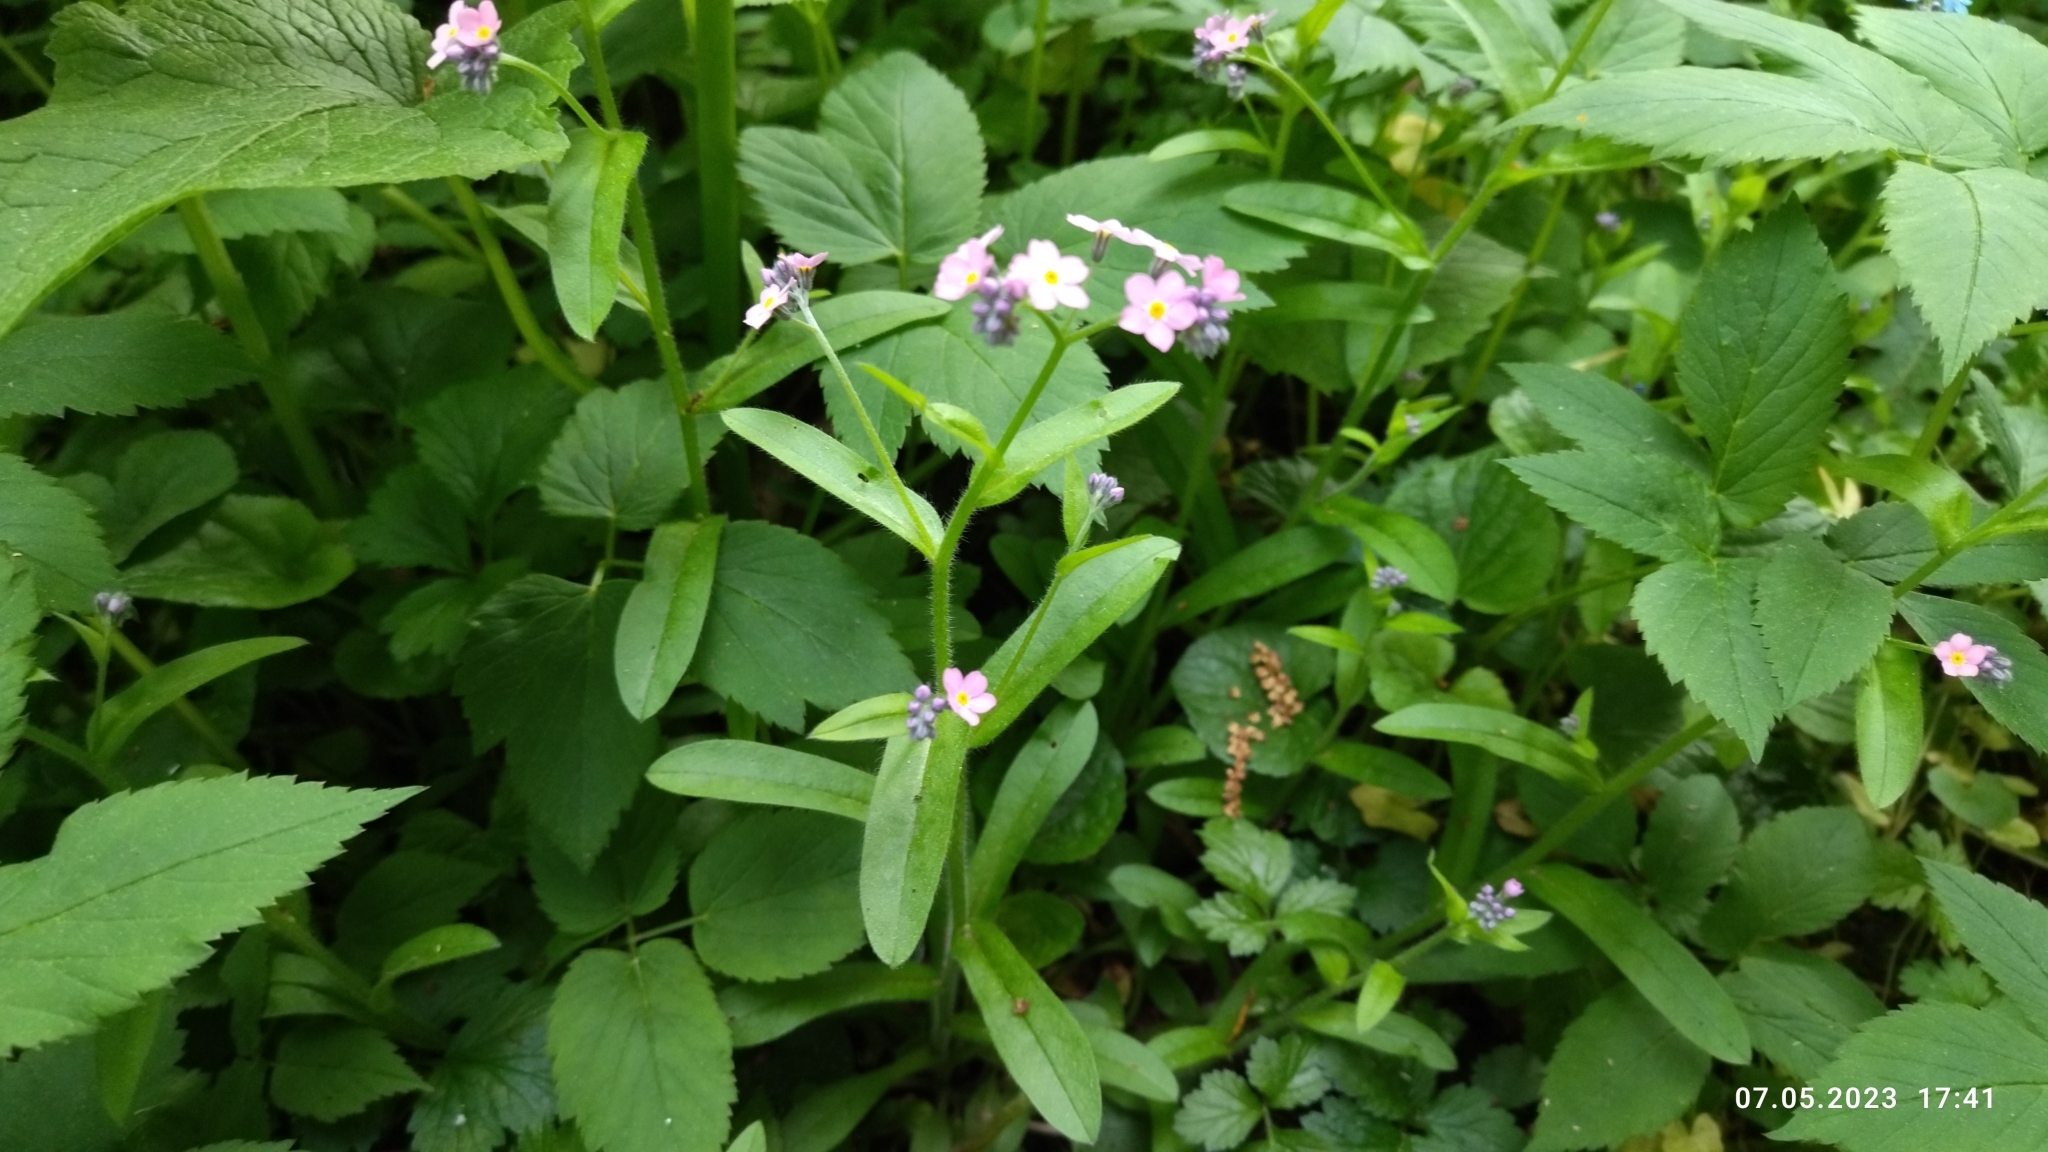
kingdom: Plantae
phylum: Tracheophyta
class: Magnoliopsida
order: Boraginales
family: Boraginaceae
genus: Myosotis
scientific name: Myosotis sylvatica
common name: Wood forget-me-not
